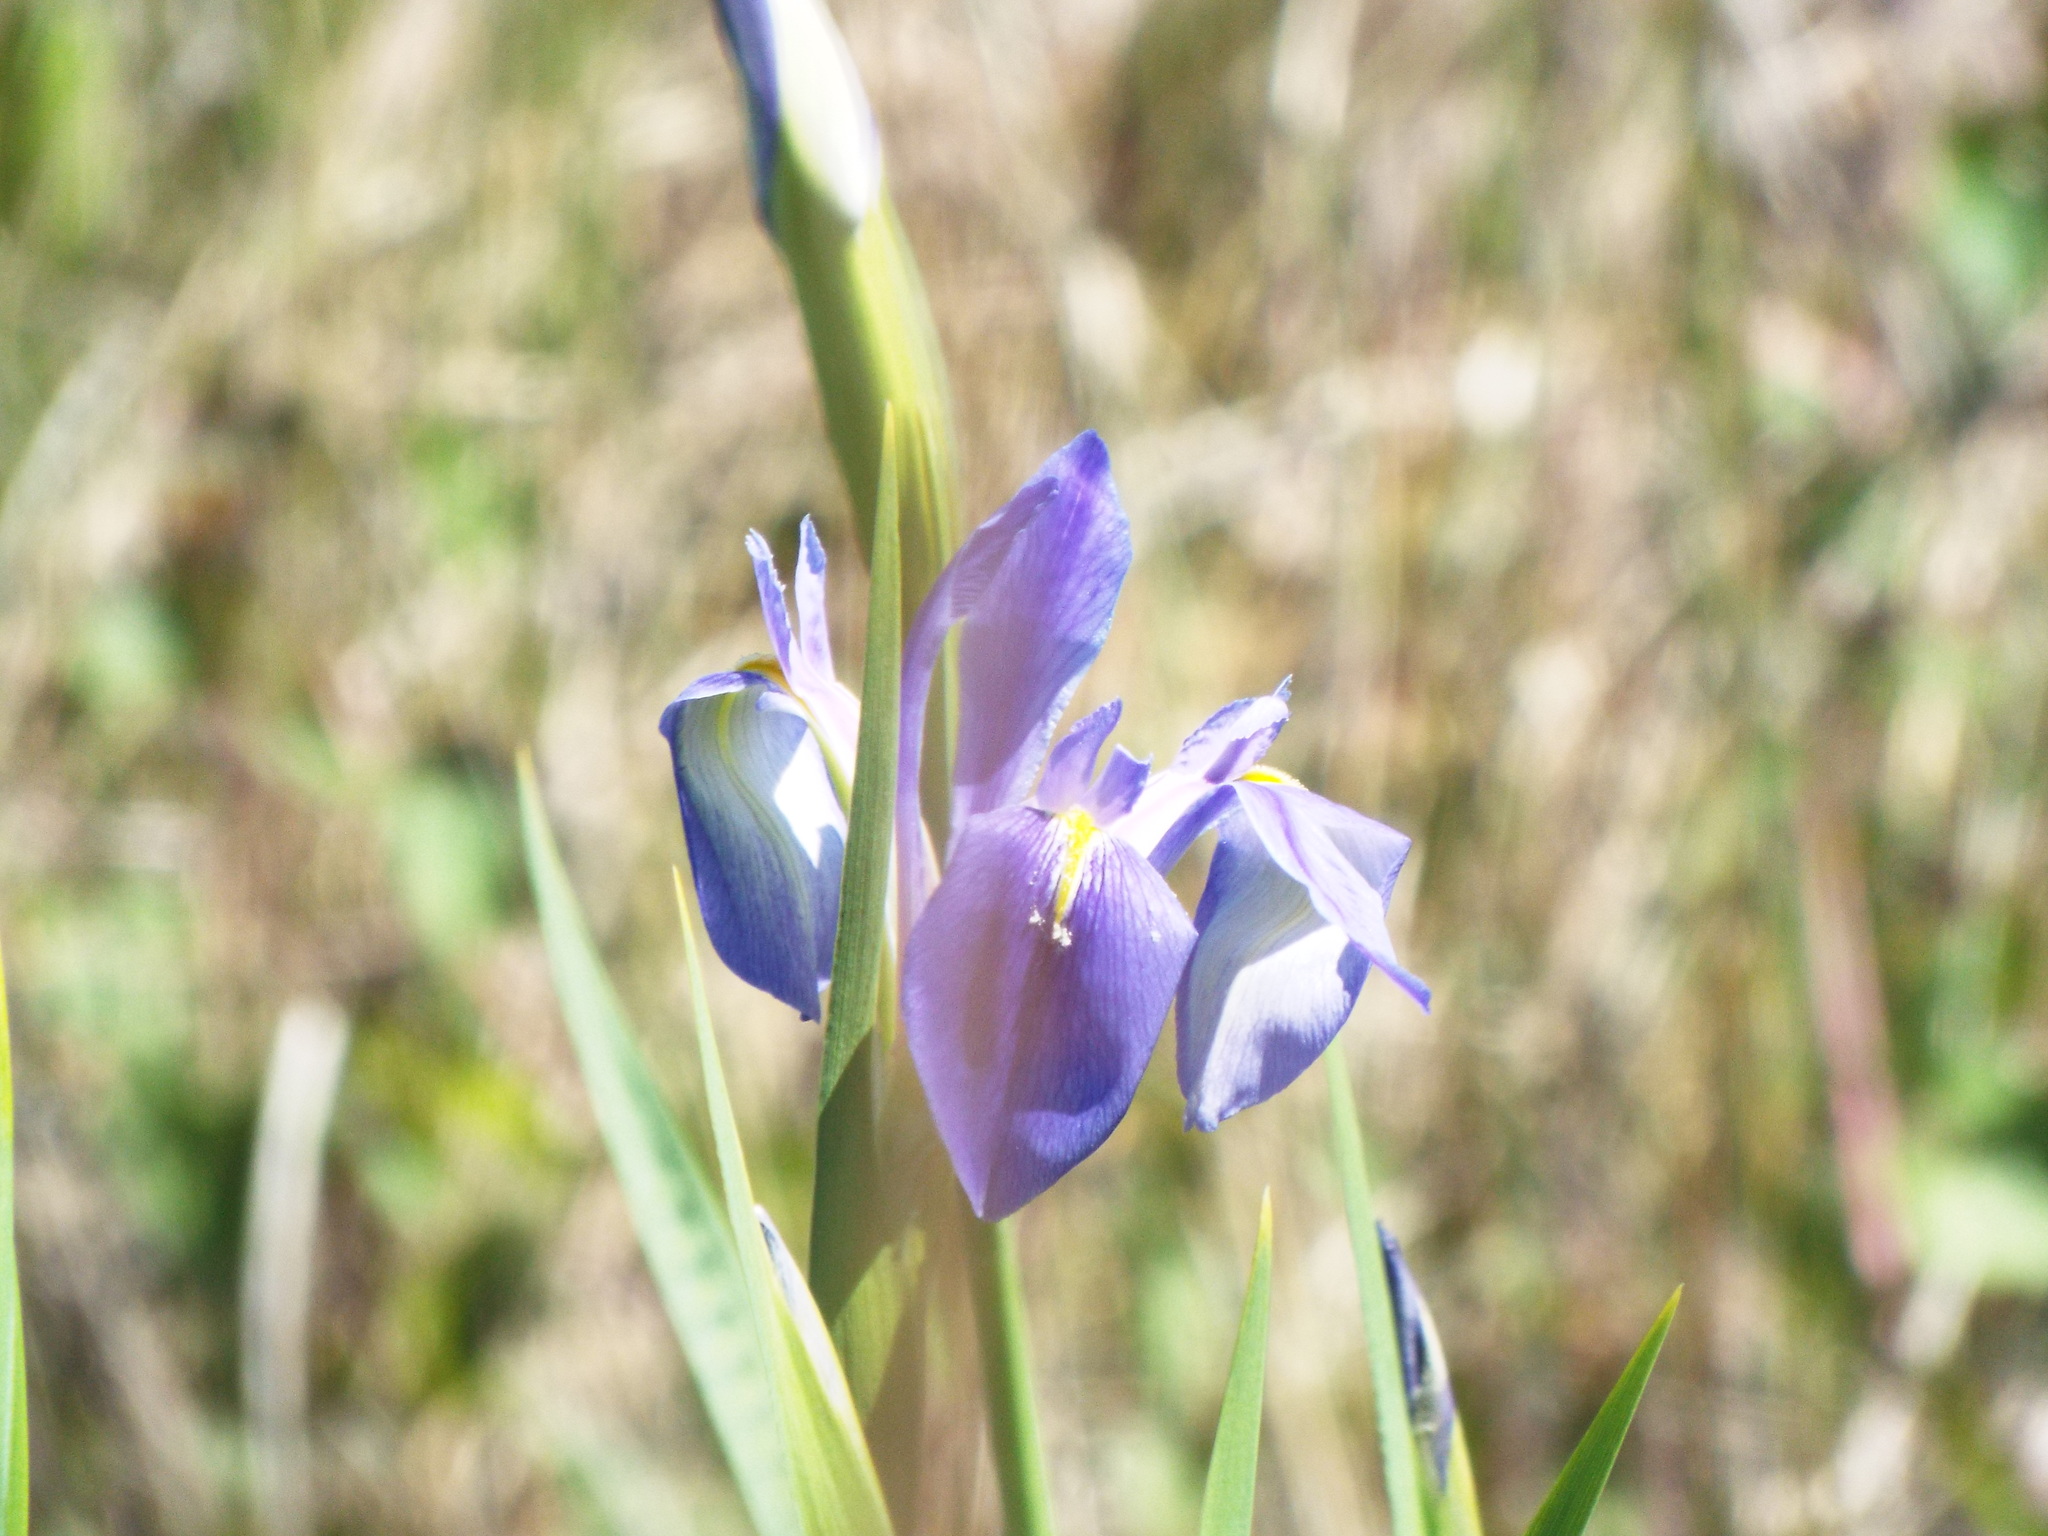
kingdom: Plantae
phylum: Tracheophyta
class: Liliopsida
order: Asparagales
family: Iridaceae
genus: Iris
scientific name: Iris savannarum
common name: Prairie iris
